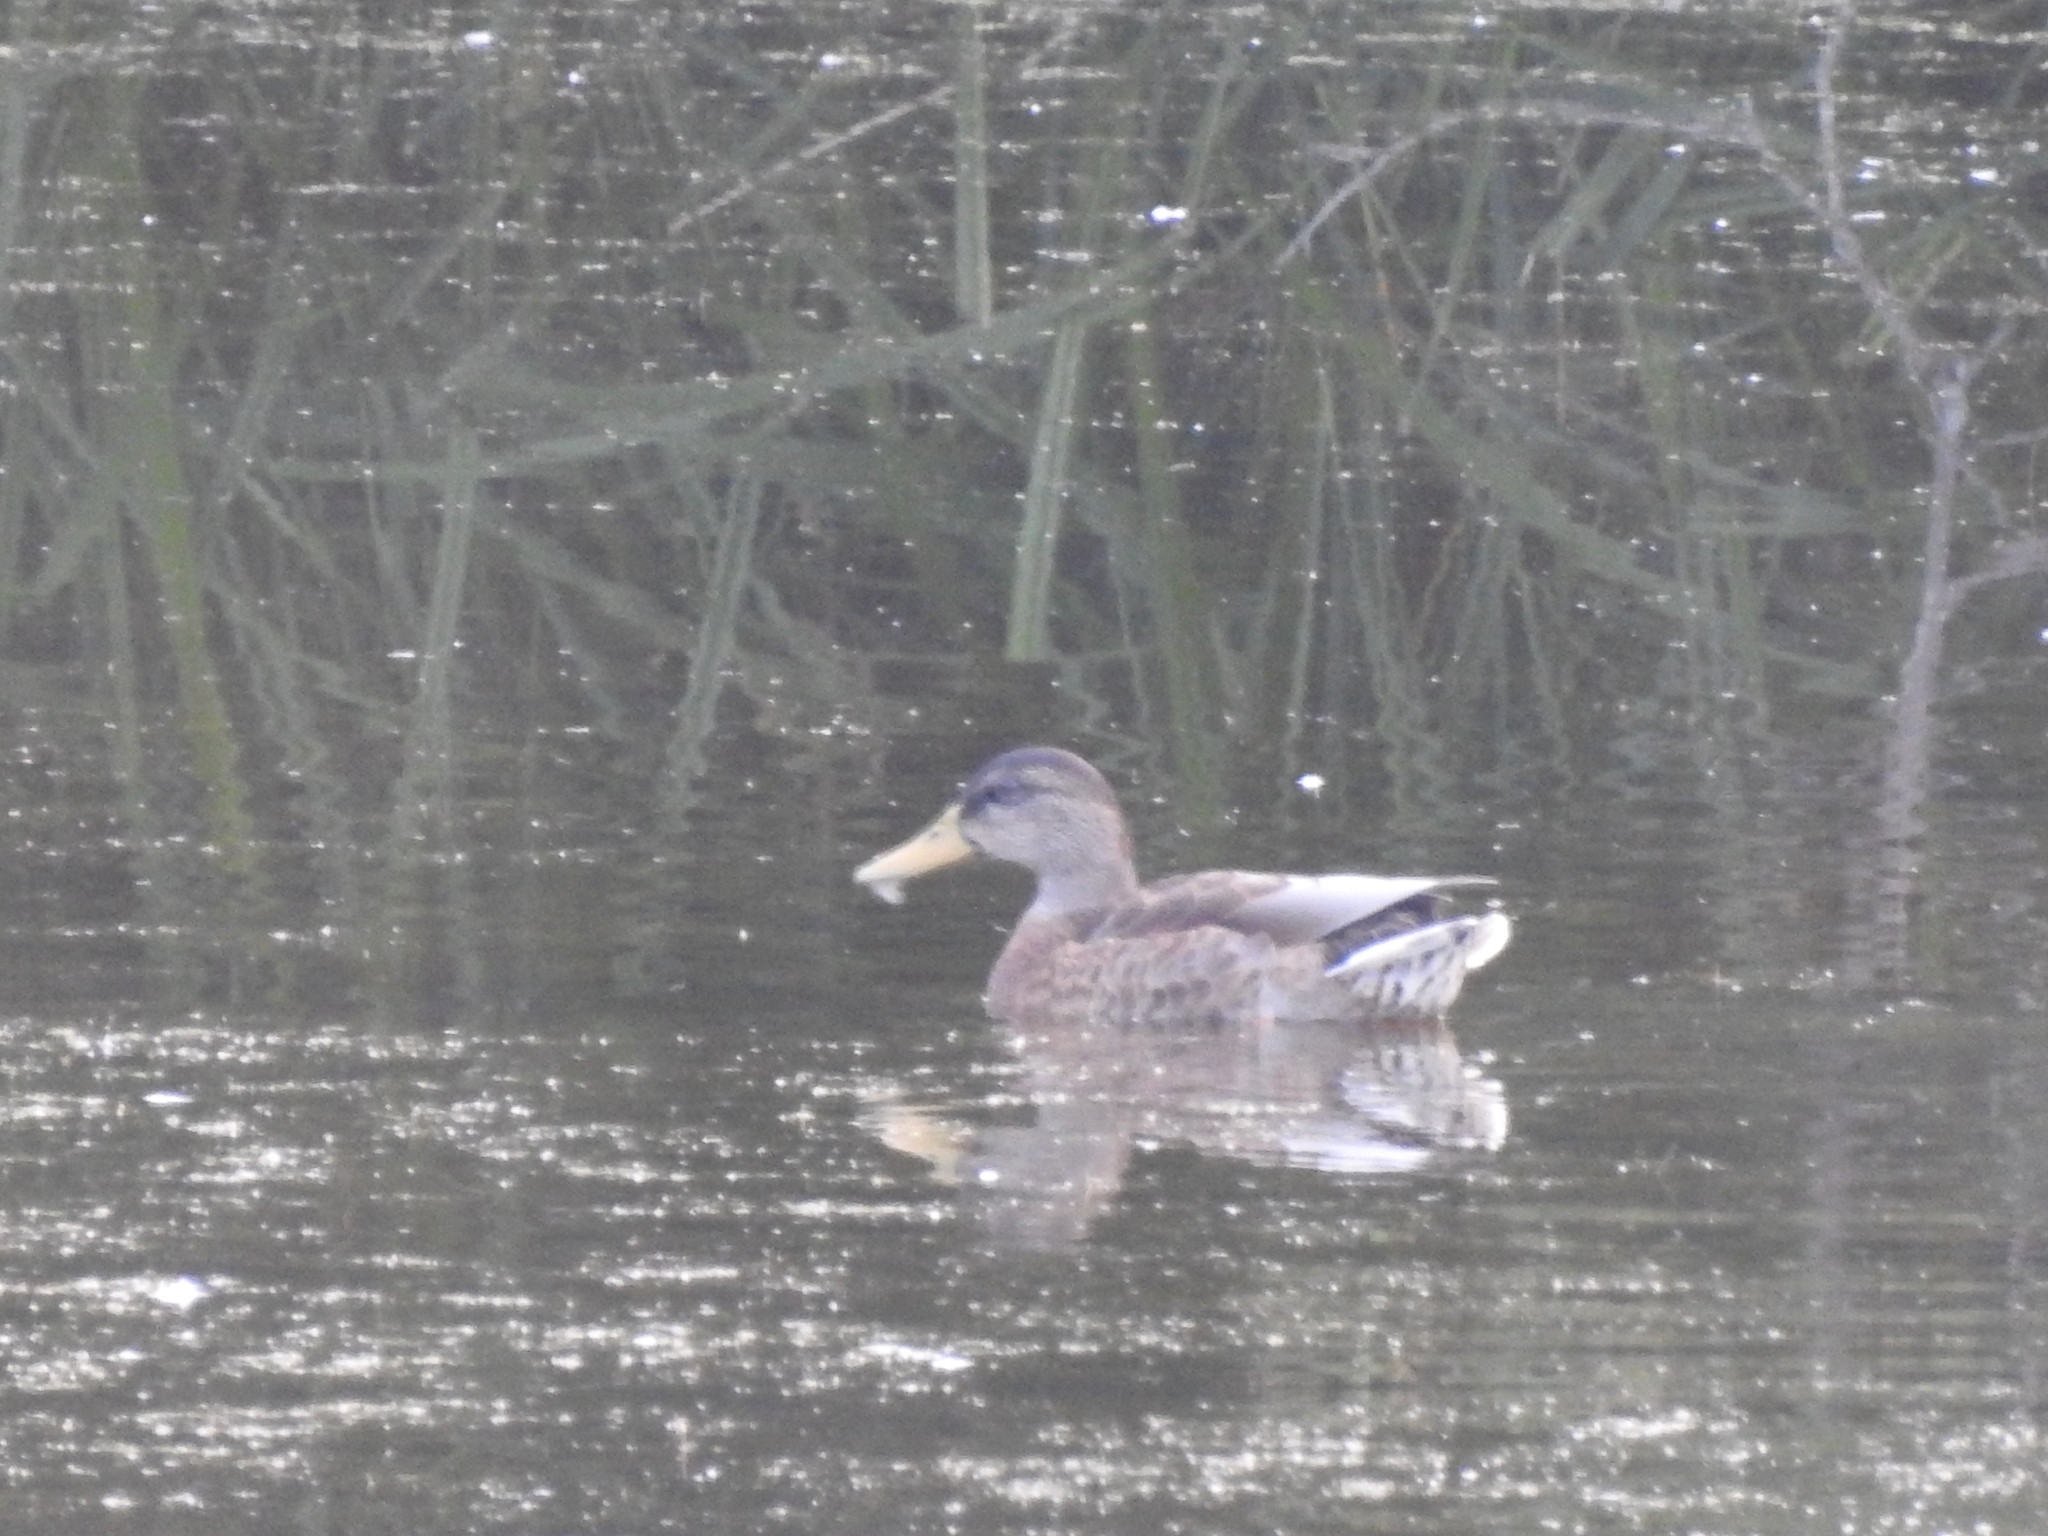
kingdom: Animalia
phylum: Chordata
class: Aves
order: Anseriformes
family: Anatidae
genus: Anas
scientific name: Anas platyrhynchos
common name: Mallard
